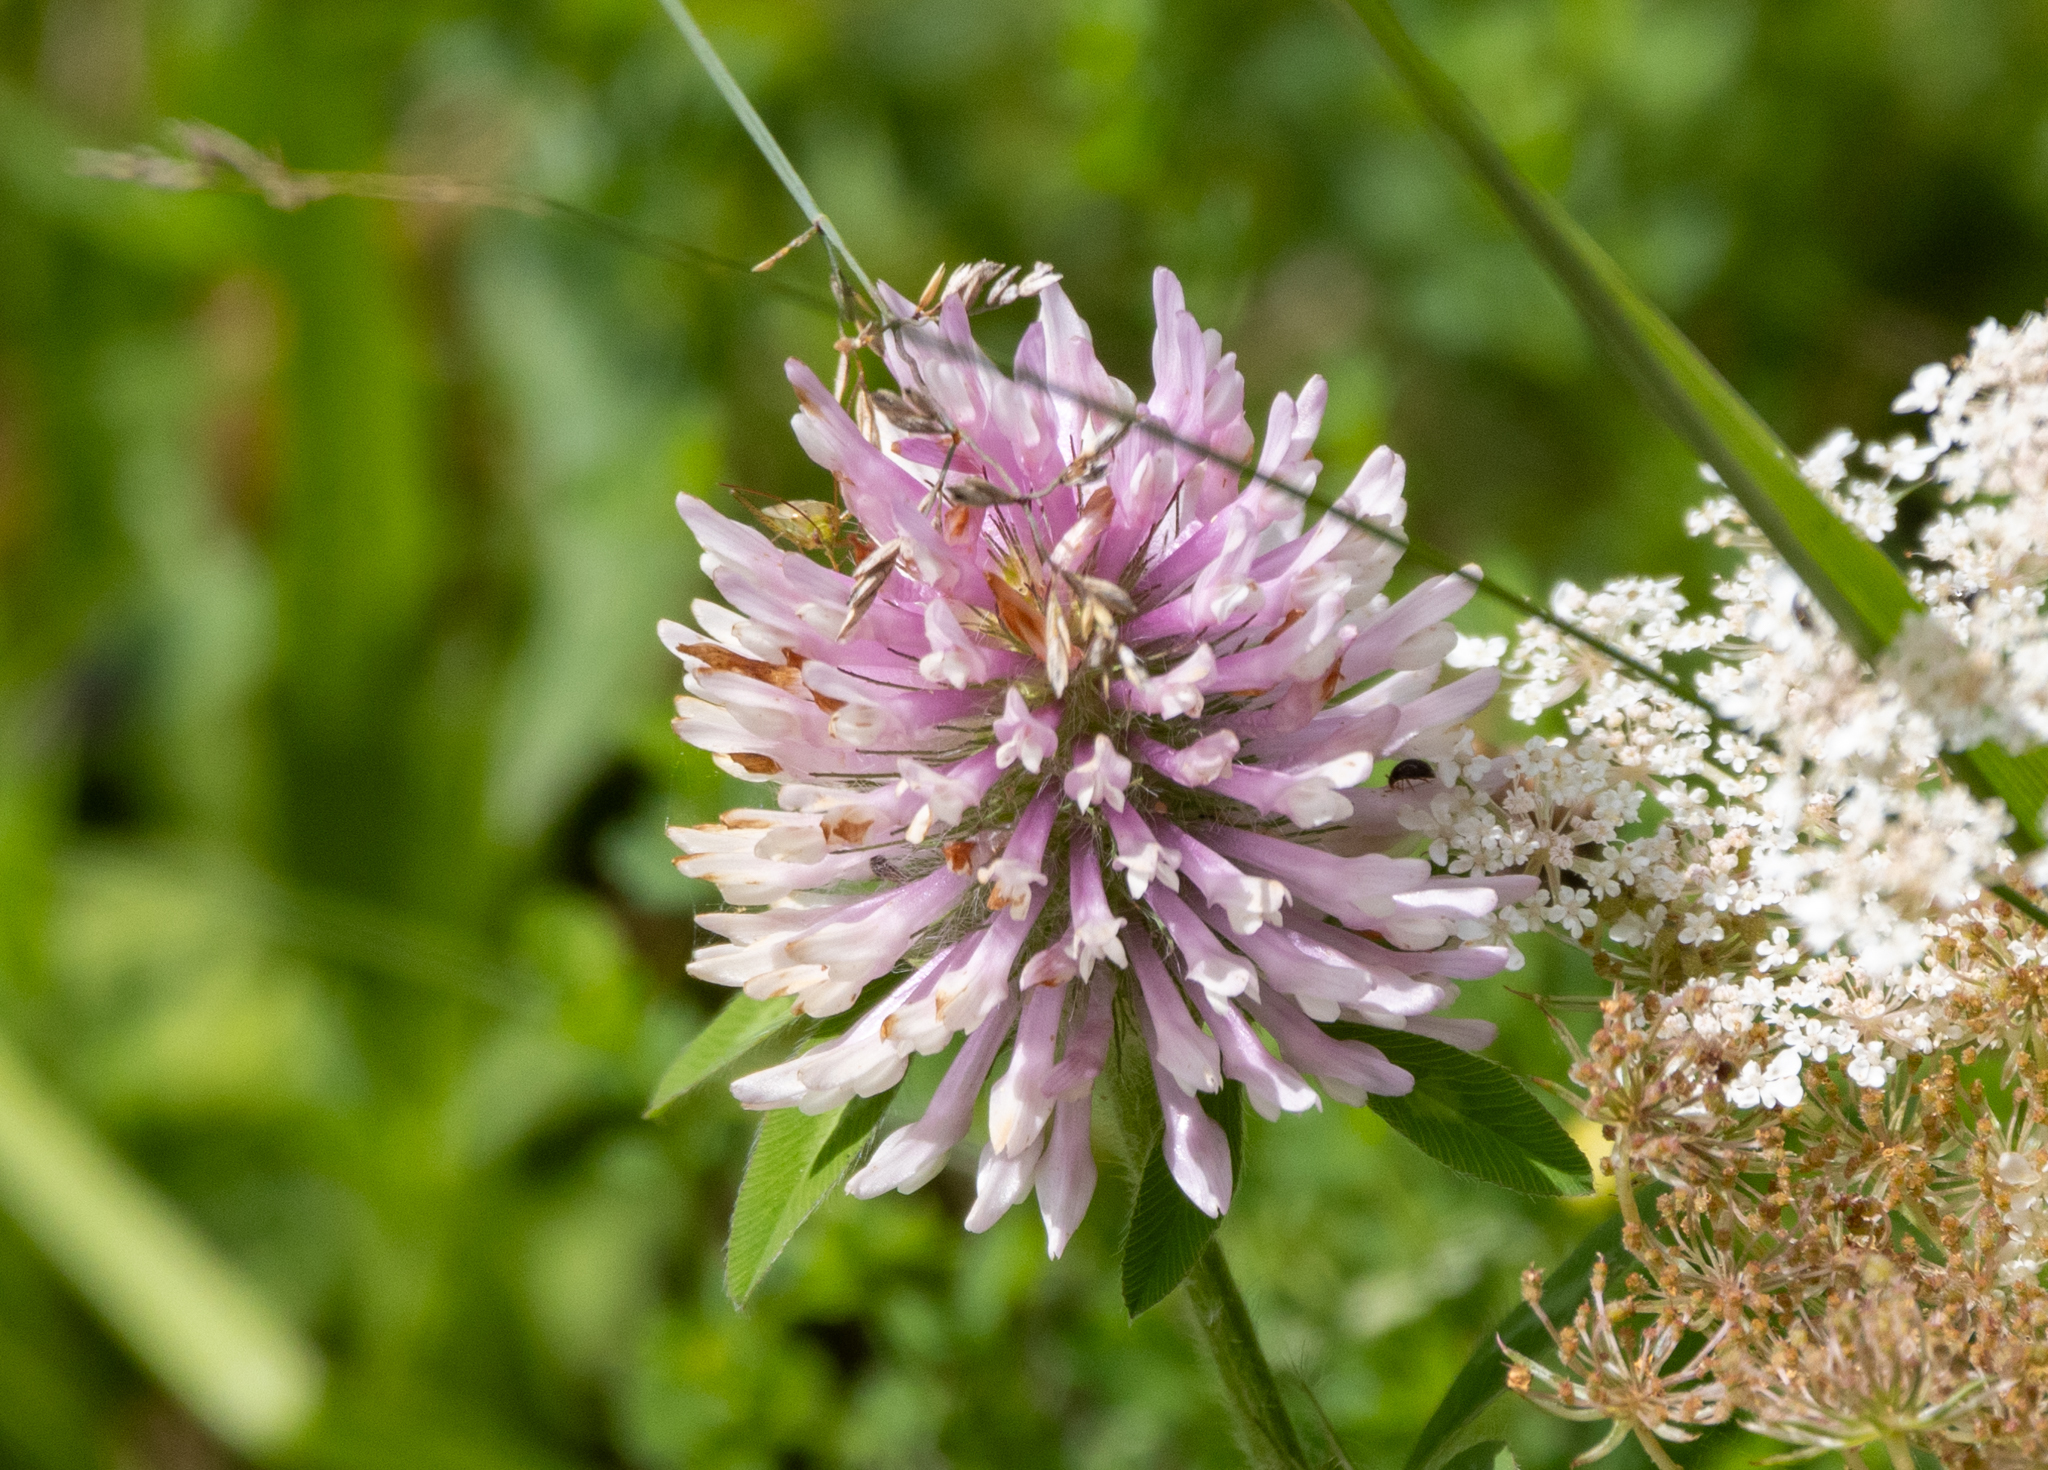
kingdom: Plantae
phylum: Tracheophyta
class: Magnoliopsida
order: Fabales
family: Fabaceae
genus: Trifolium
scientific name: Trifolium pratense
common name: Red clover
